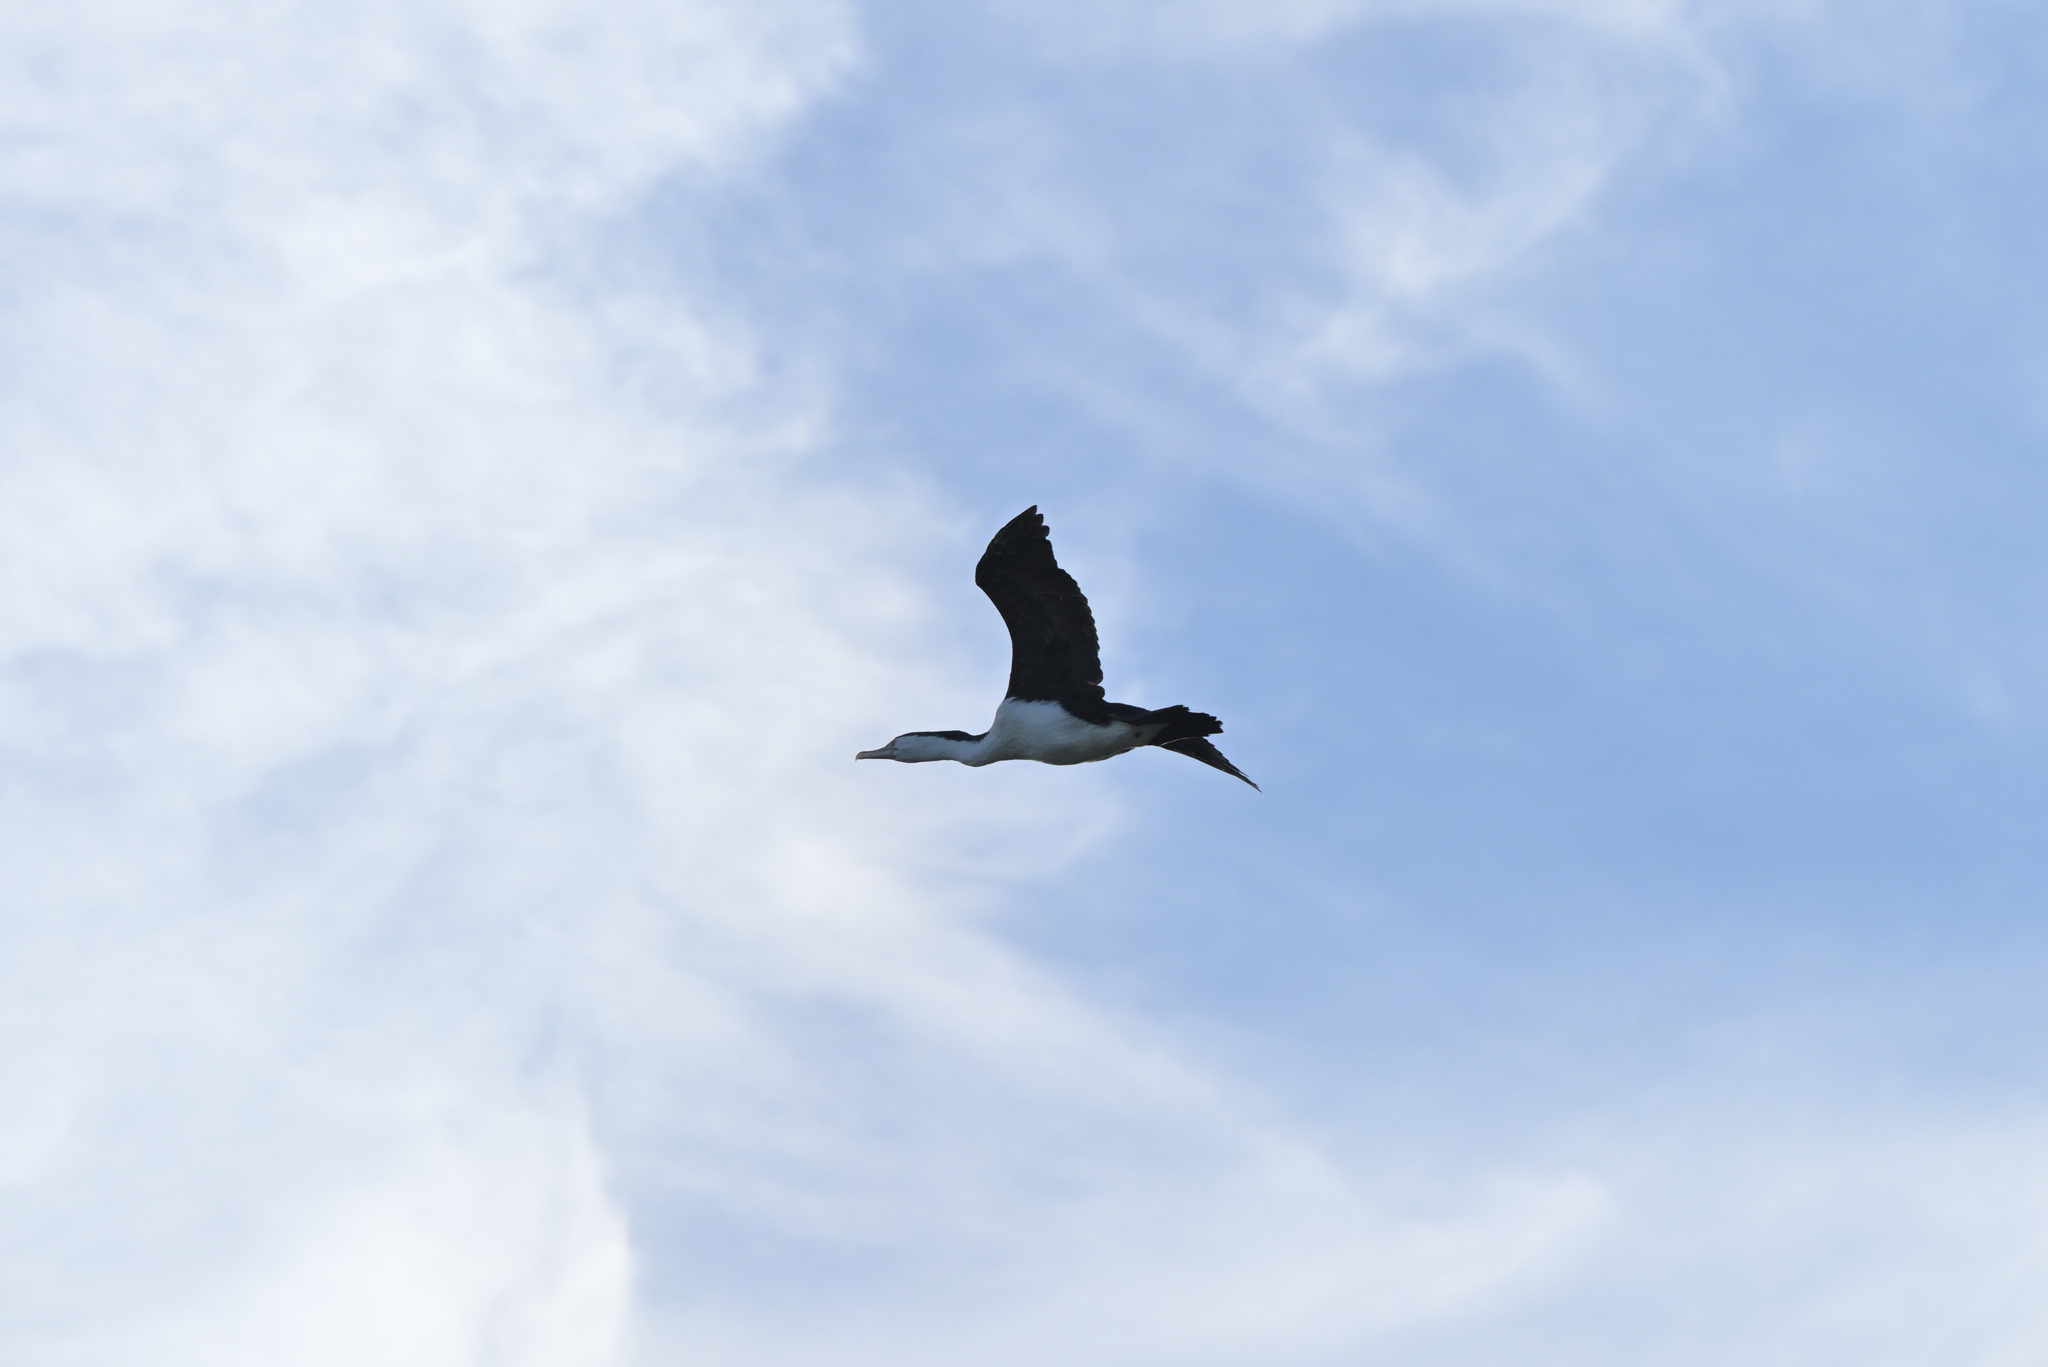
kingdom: Animalia
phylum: Chordata
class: Aves
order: Suliformes
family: Phalacrocoracidae
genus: Phalacrocorax
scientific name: Phalacrocorax varius
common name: Pied cormorant
